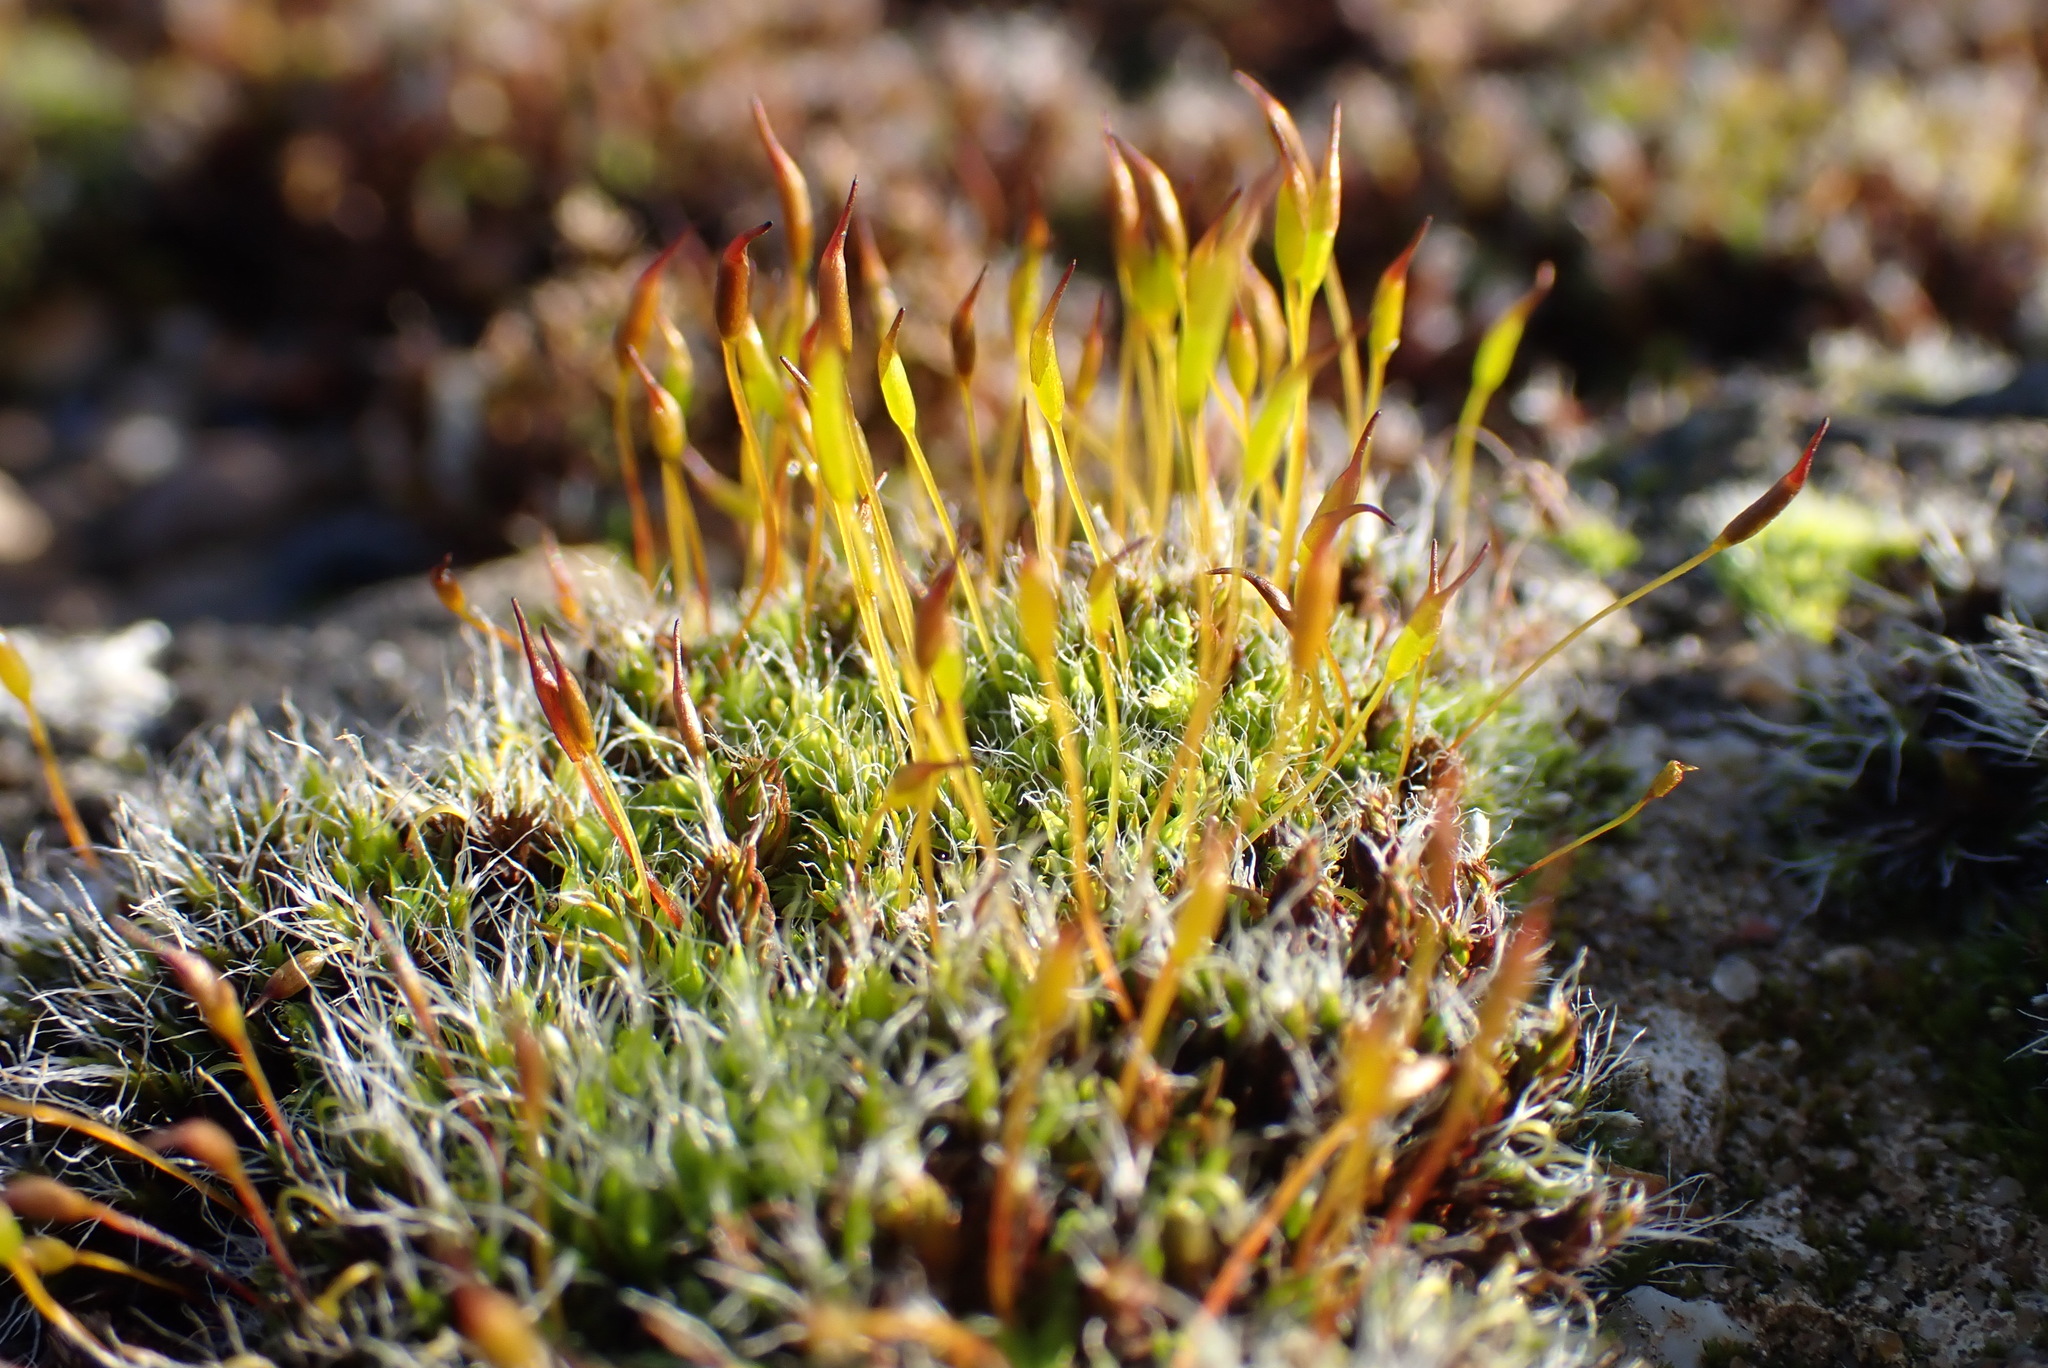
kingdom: Plantae
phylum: Bryophyta
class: Bryopsida
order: Pottiales
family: Pottiaceae
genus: Tortula
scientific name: Tortula muralis
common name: Wall screw-moss
